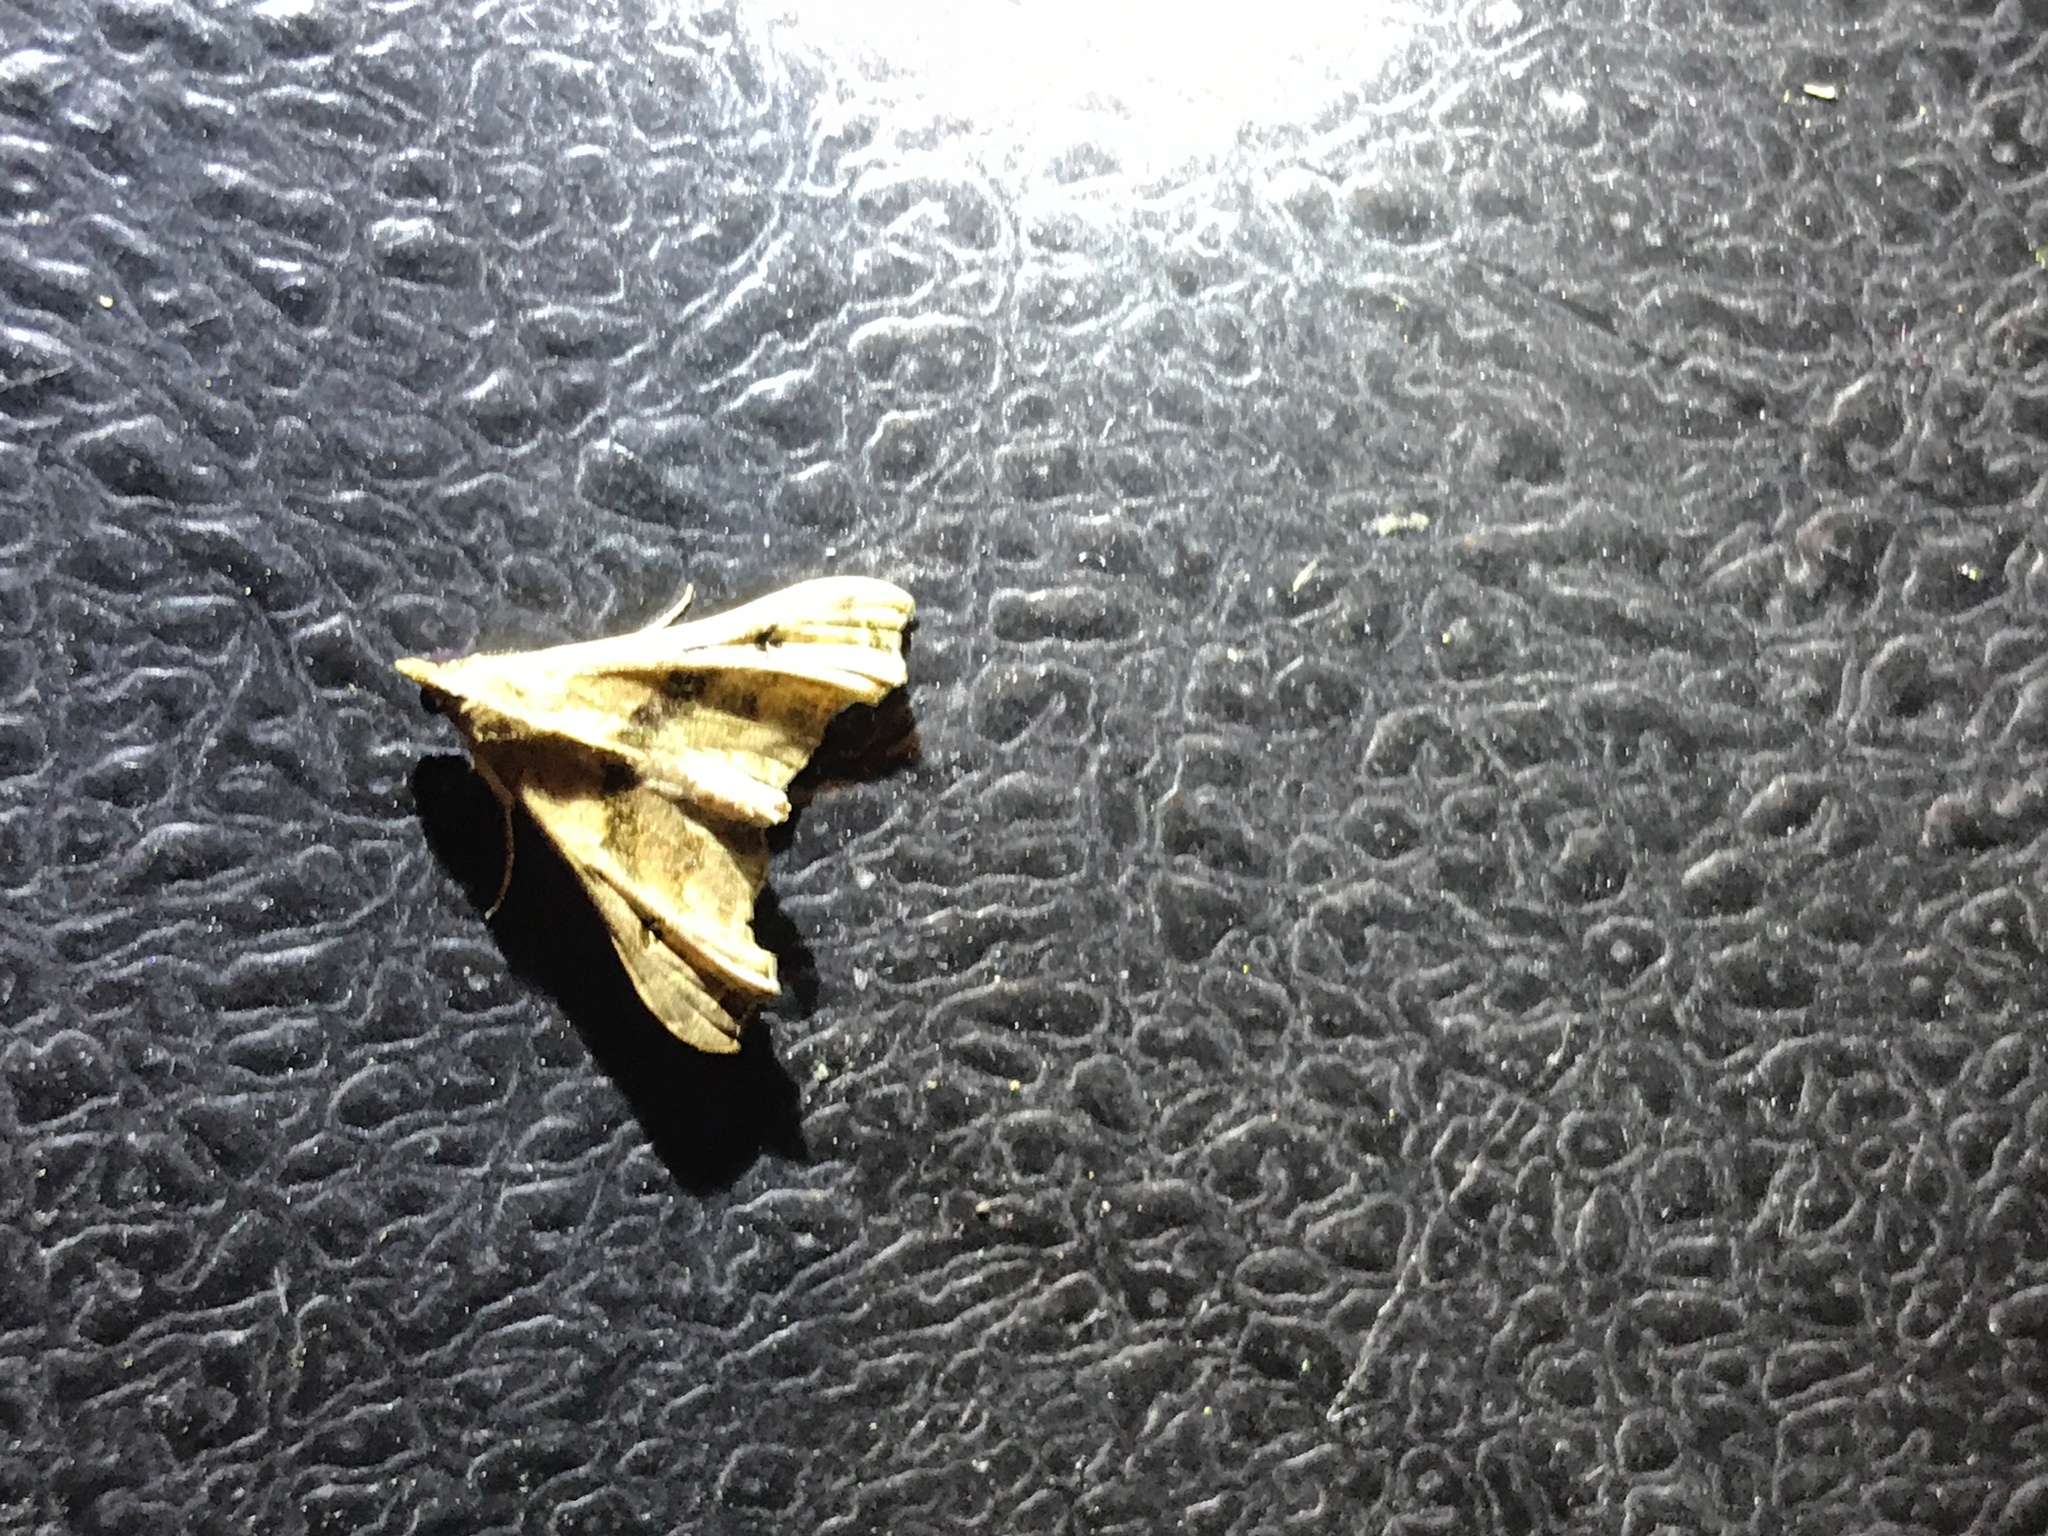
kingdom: Animalia
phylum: Arthropoda
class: Insecta
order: Lepidoptera
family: Erebidae
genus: Palthis
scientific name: Palthis asopialis
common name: Faint-spotted palthis moth
